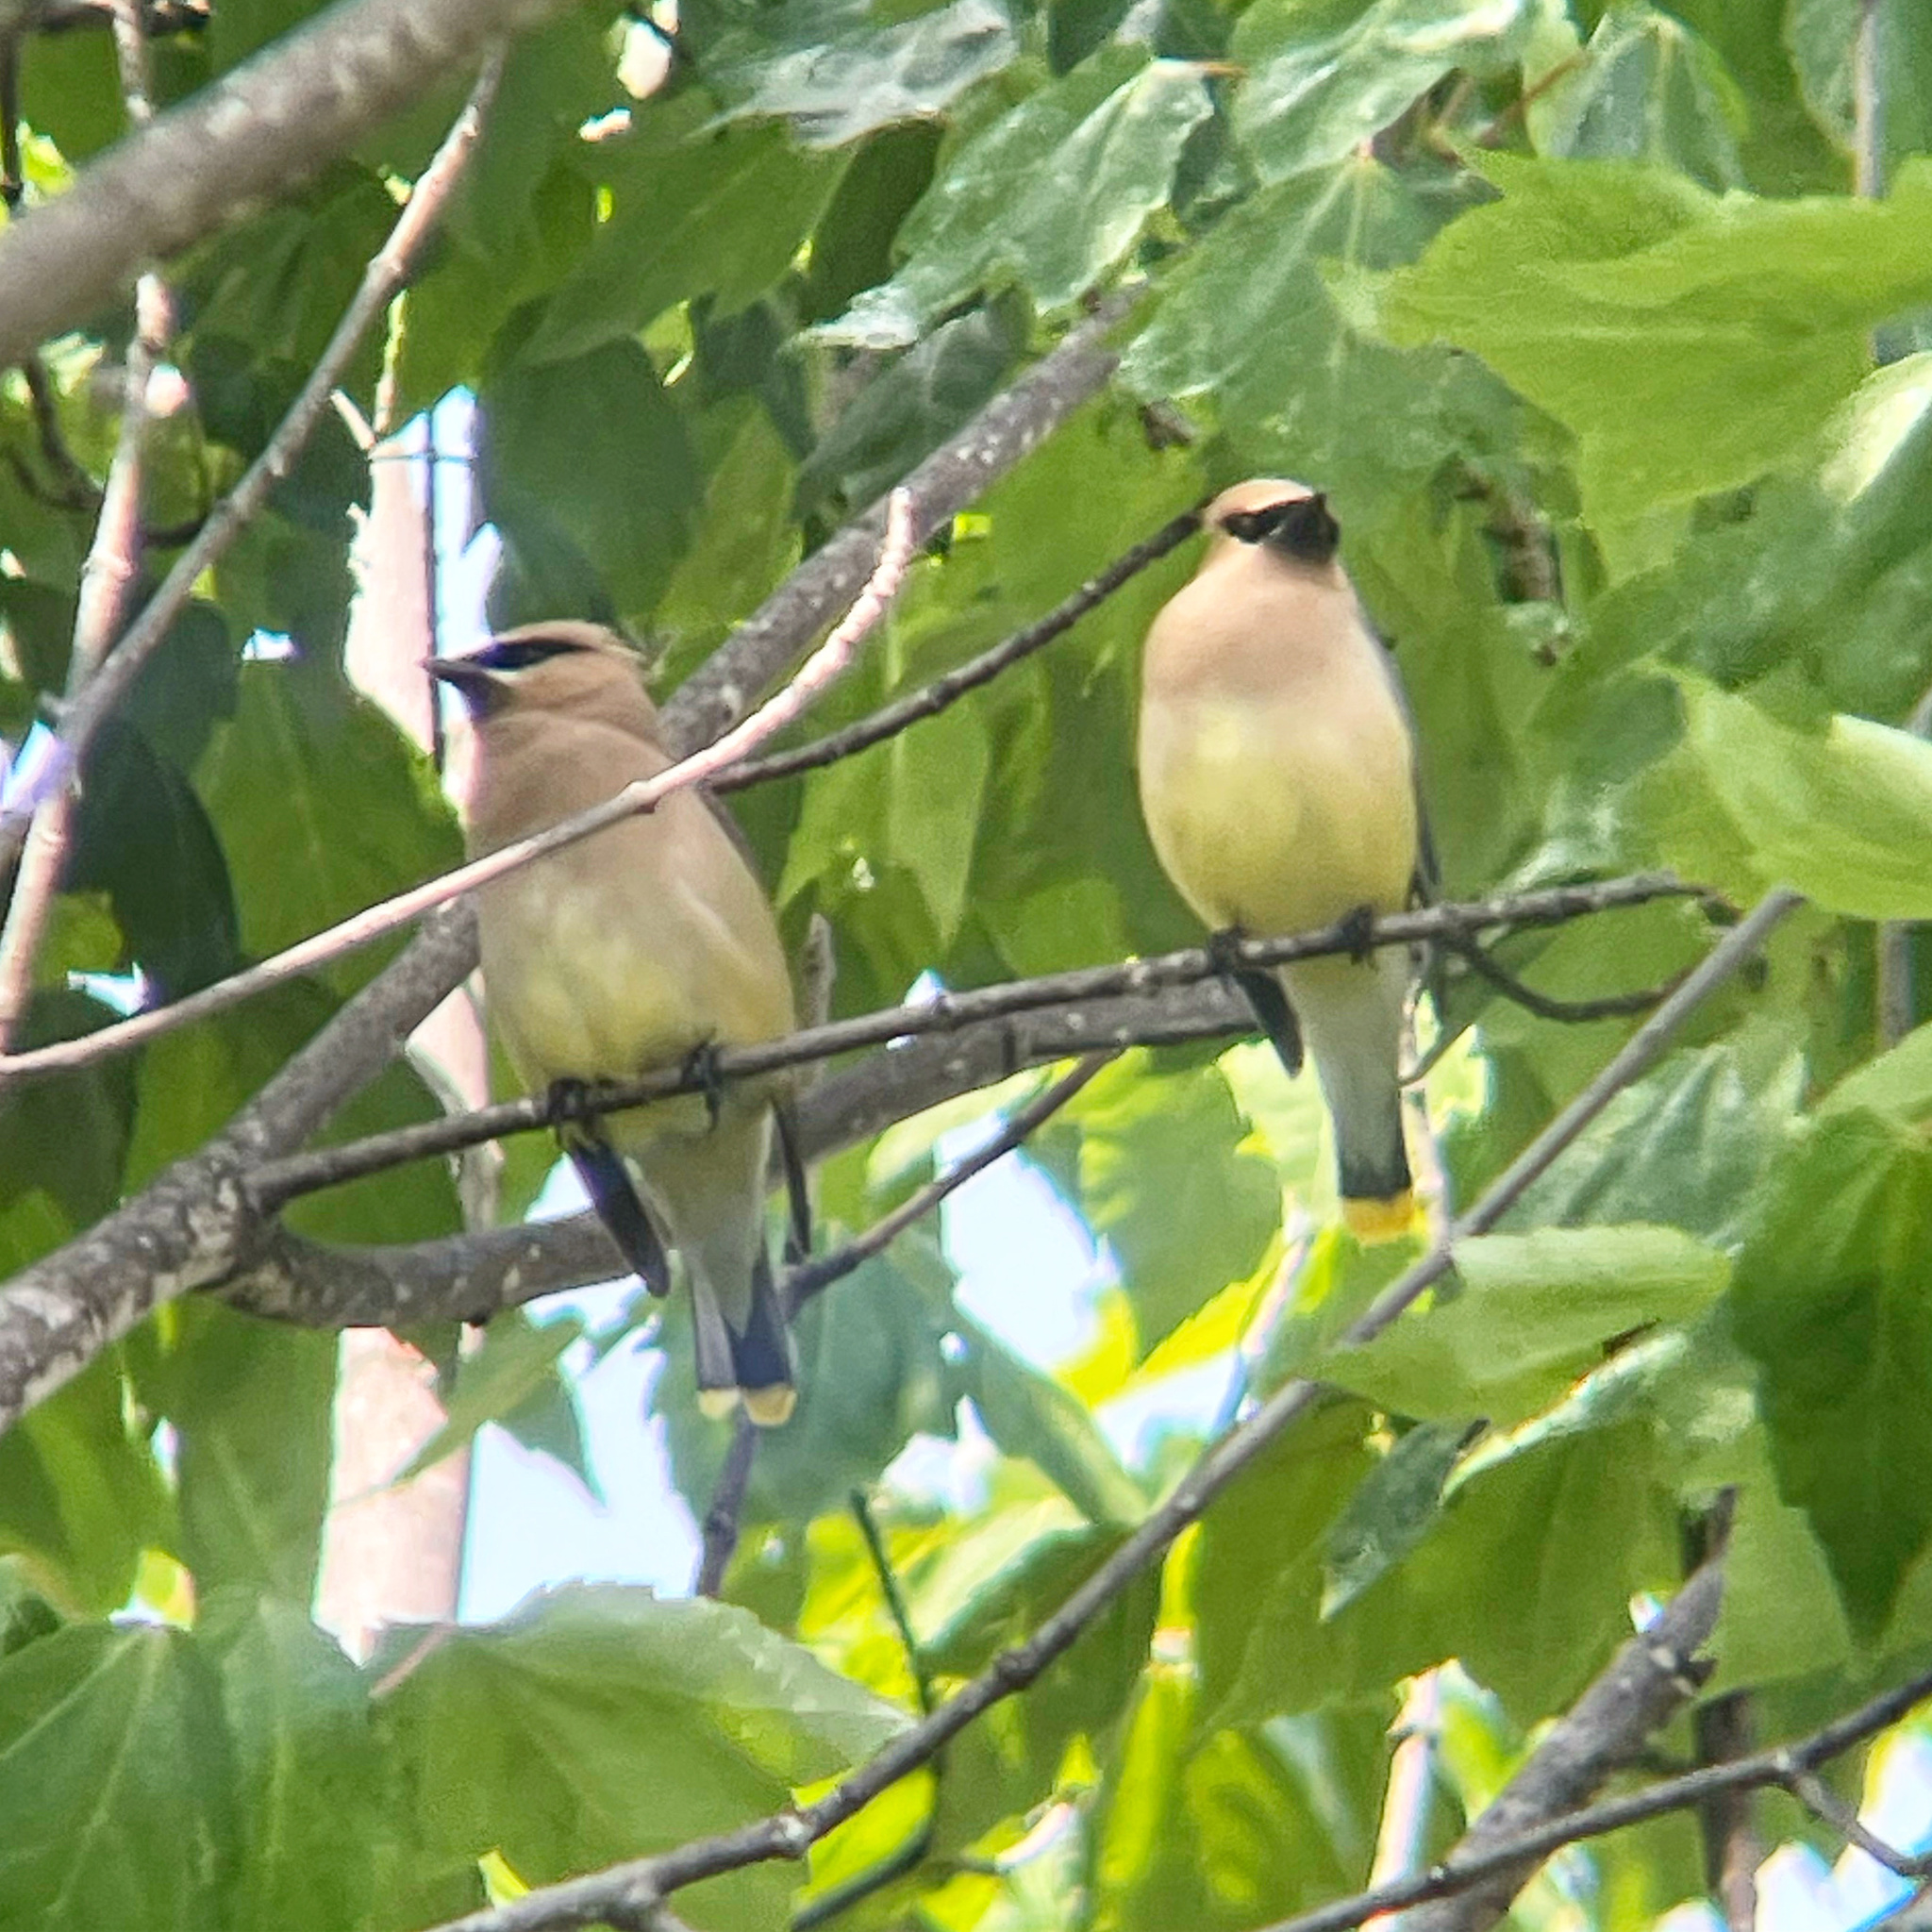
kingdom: Animalia
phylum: Chordata
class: Aves
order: Passeriformes
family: Bombycillidae
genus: Bombycilla
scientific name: Bombycilla cedrorum
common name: Cedar waxwing
